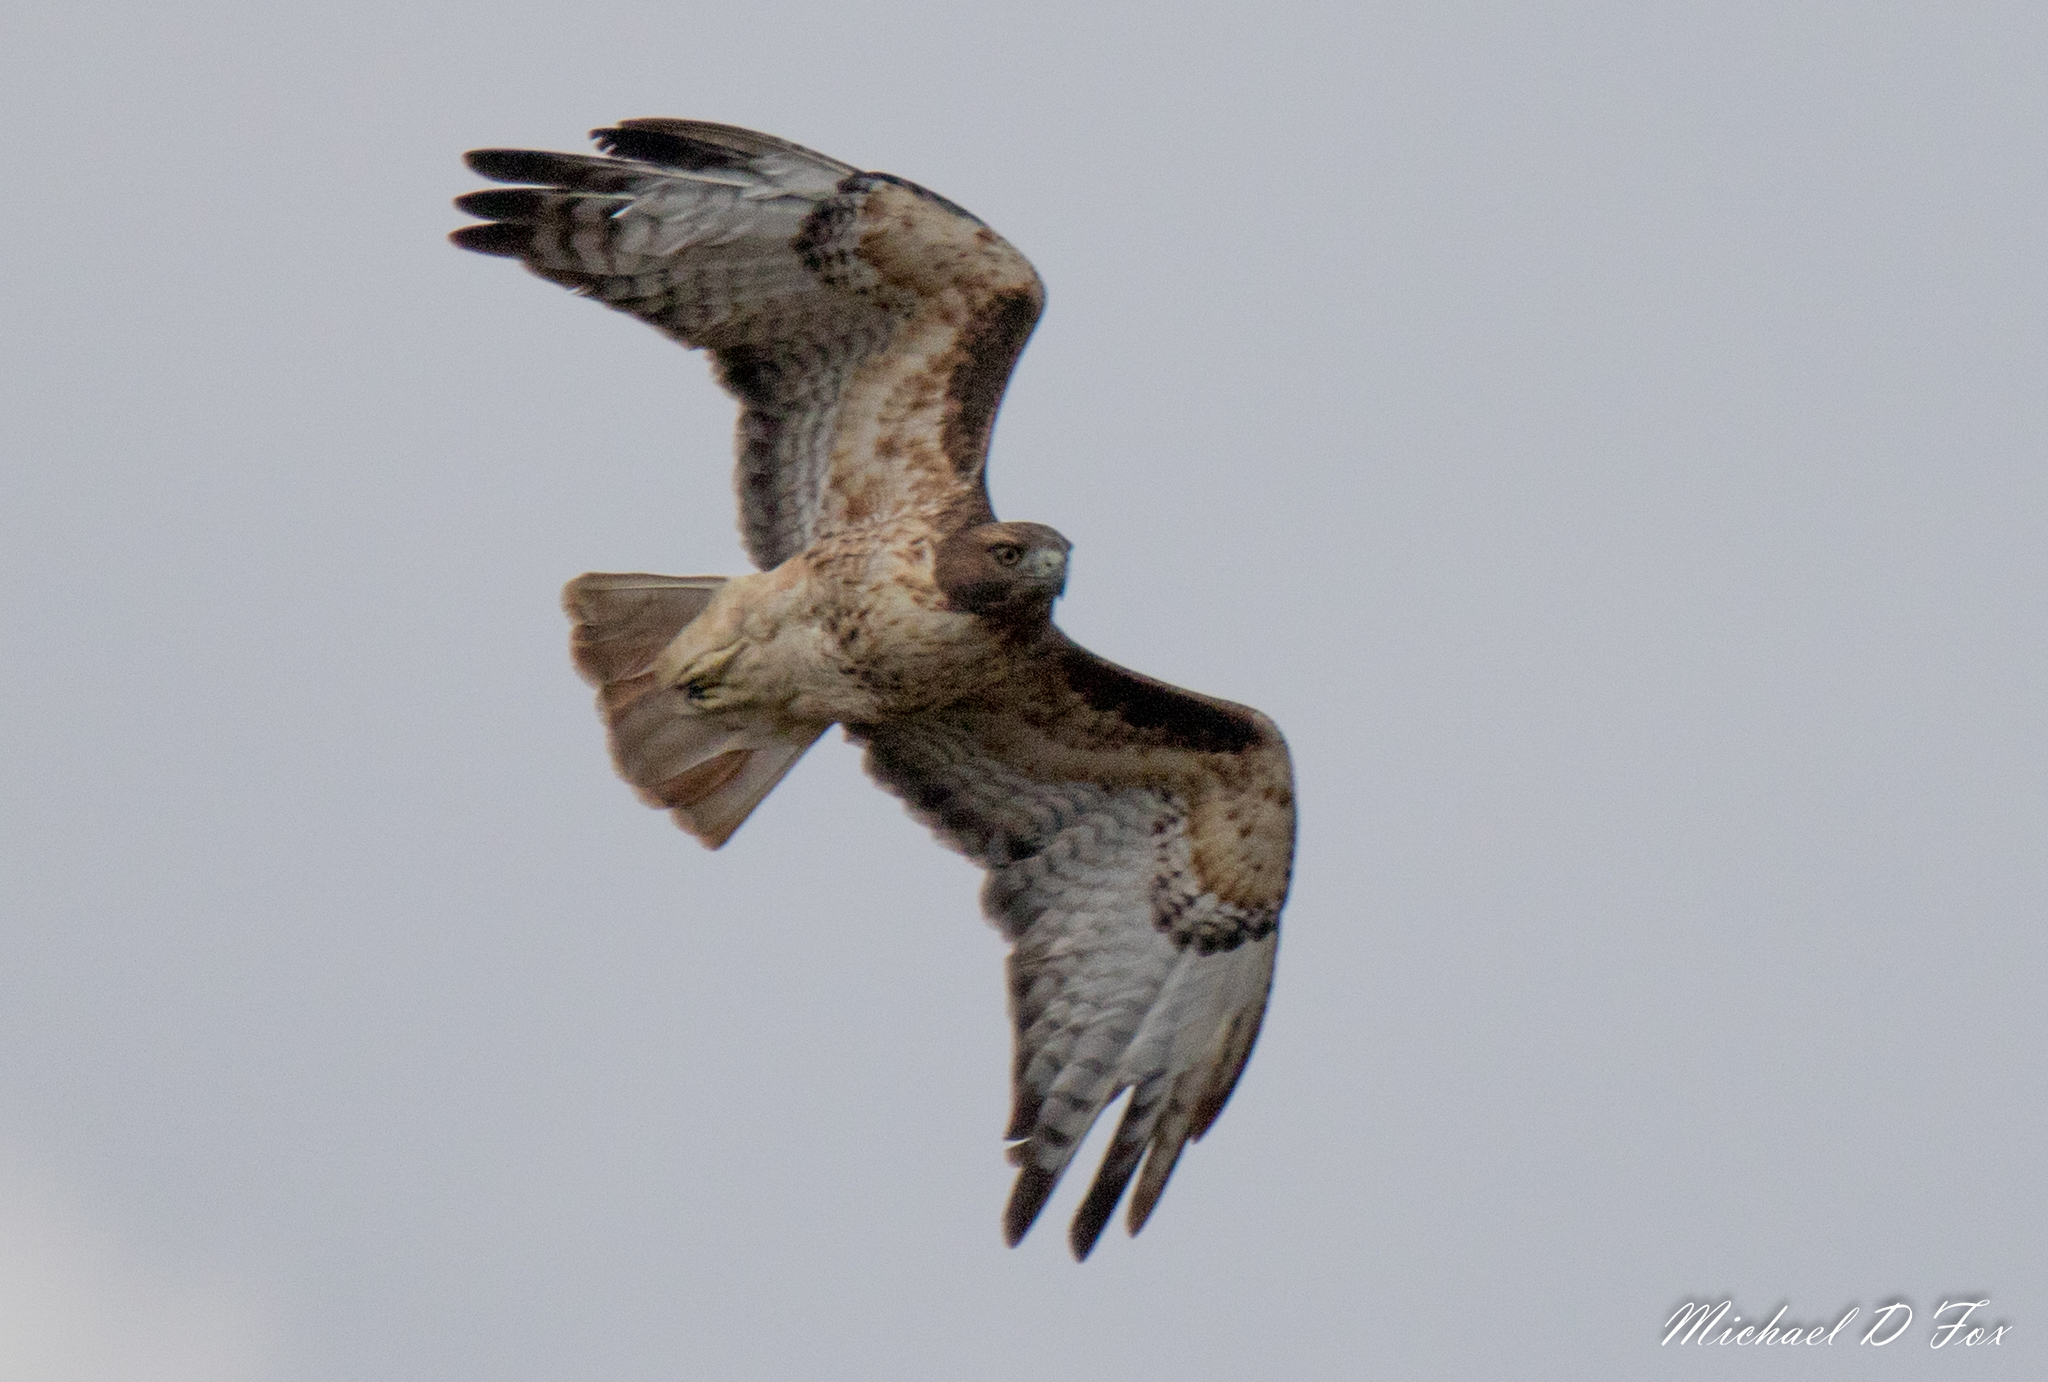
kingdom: Animalia
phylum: Chordata
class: Aves
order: Accipitriformes
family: Accipitridae
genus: Buteo
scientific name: Buteo jamaicensis
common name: Red-tailed hawk
